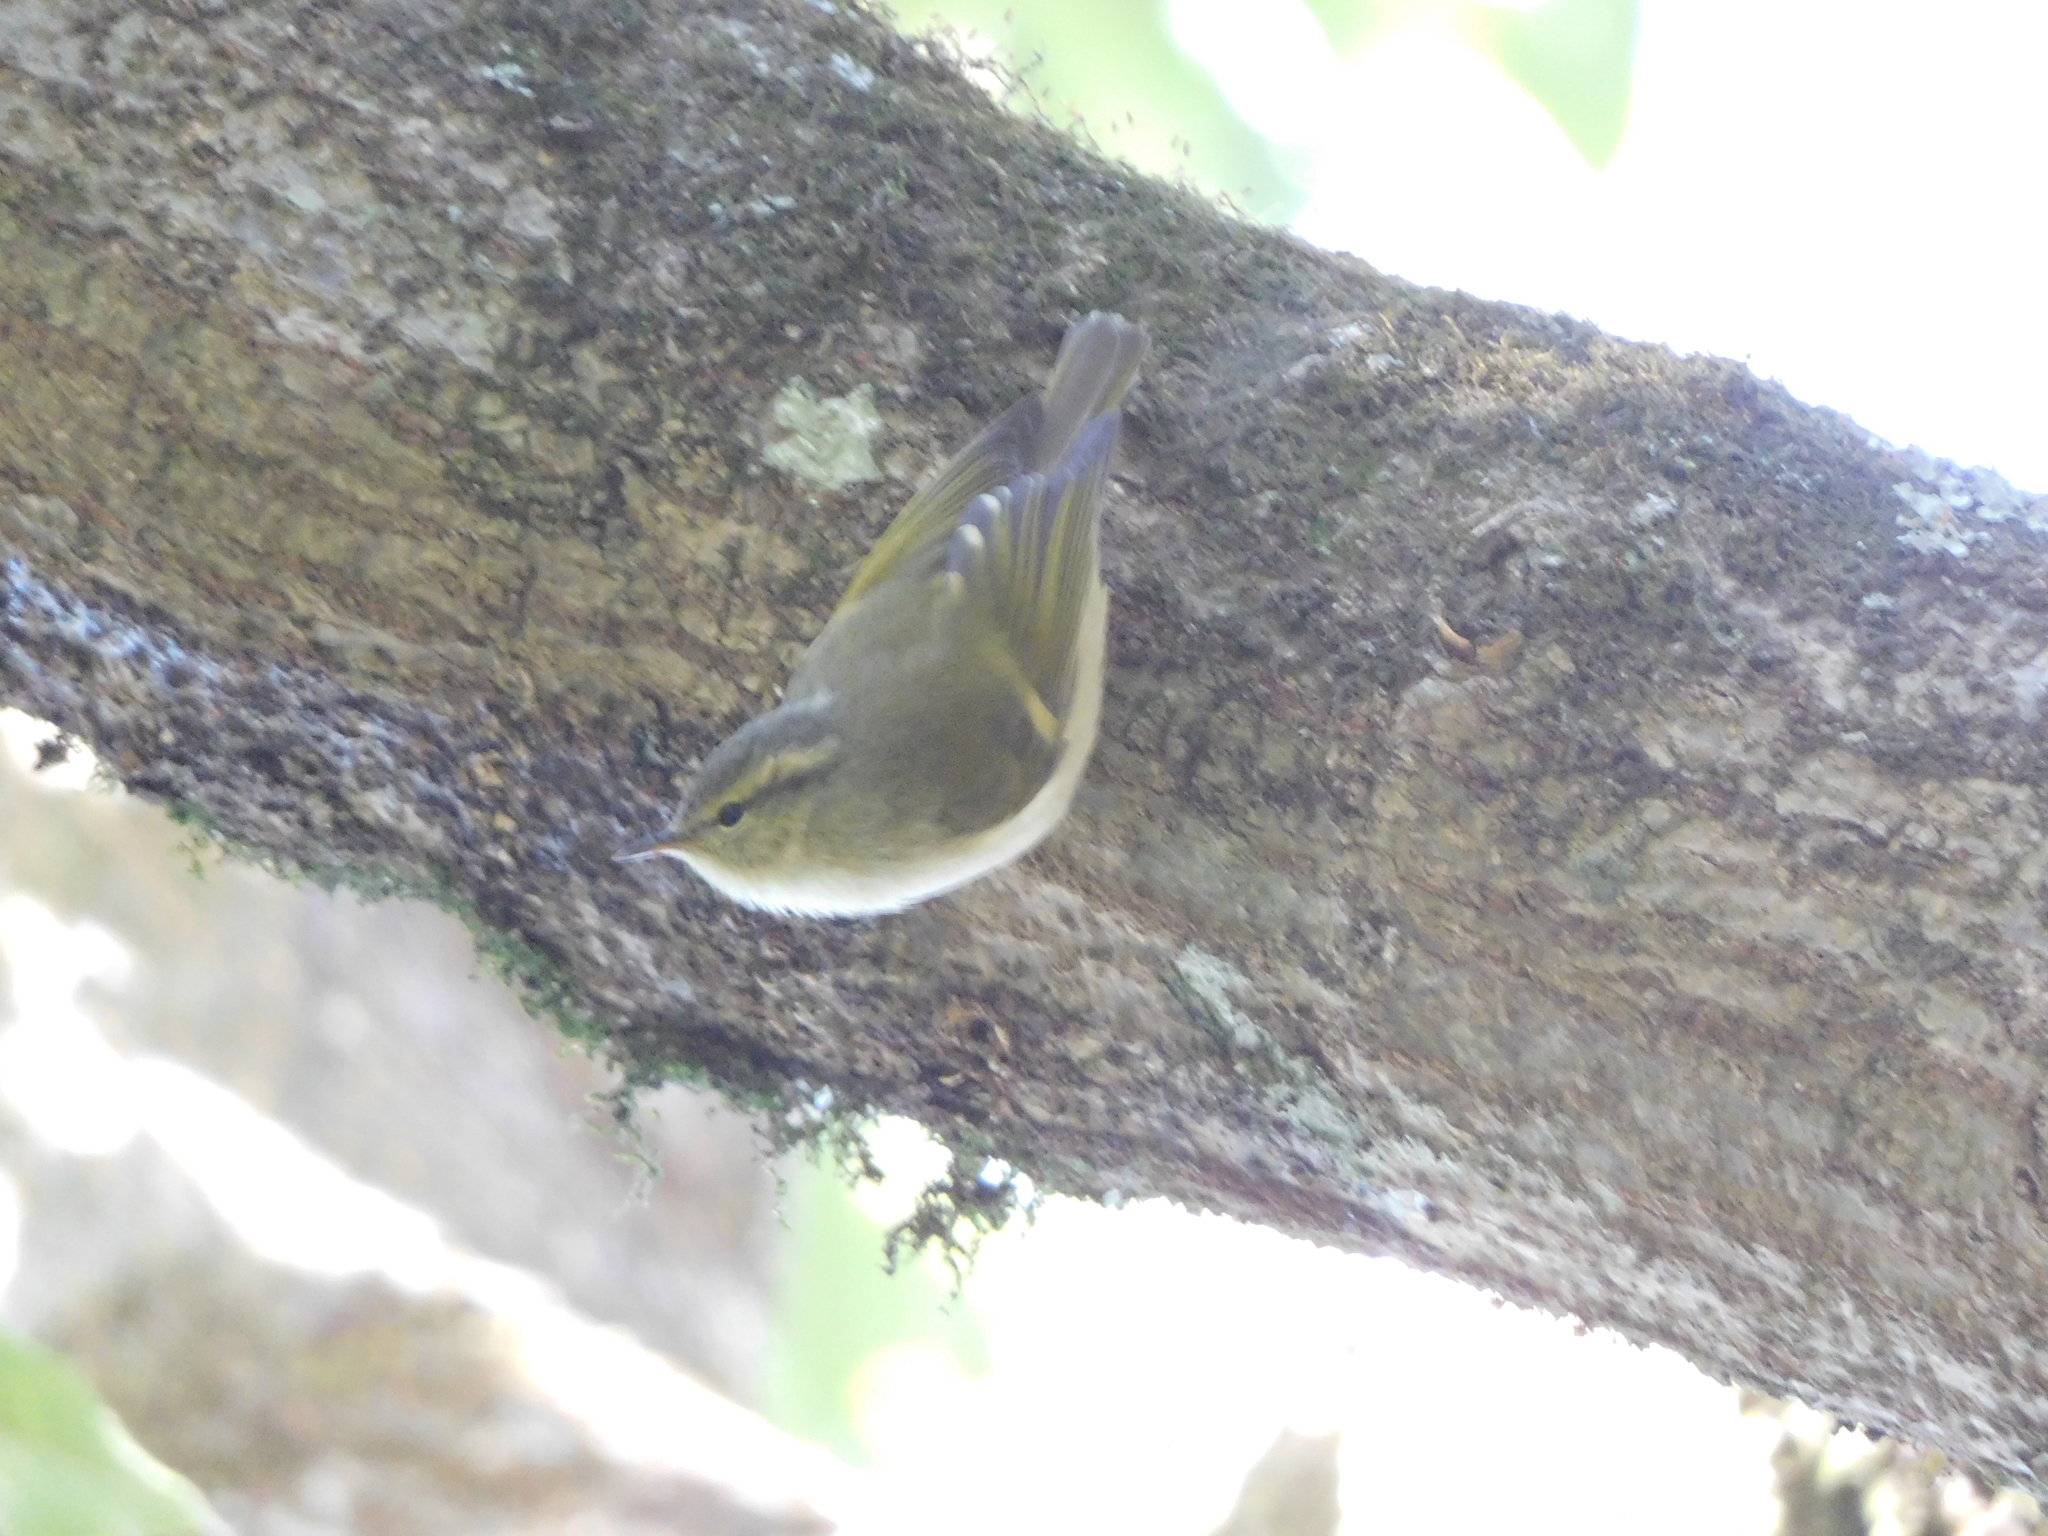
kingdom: Animalia
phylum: Chordata
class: Aves
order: Passeriformes
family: Phylloscopidae
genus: Phylloscopus
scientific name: Phylloscopus pulcher
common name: Buff-barred warbler
